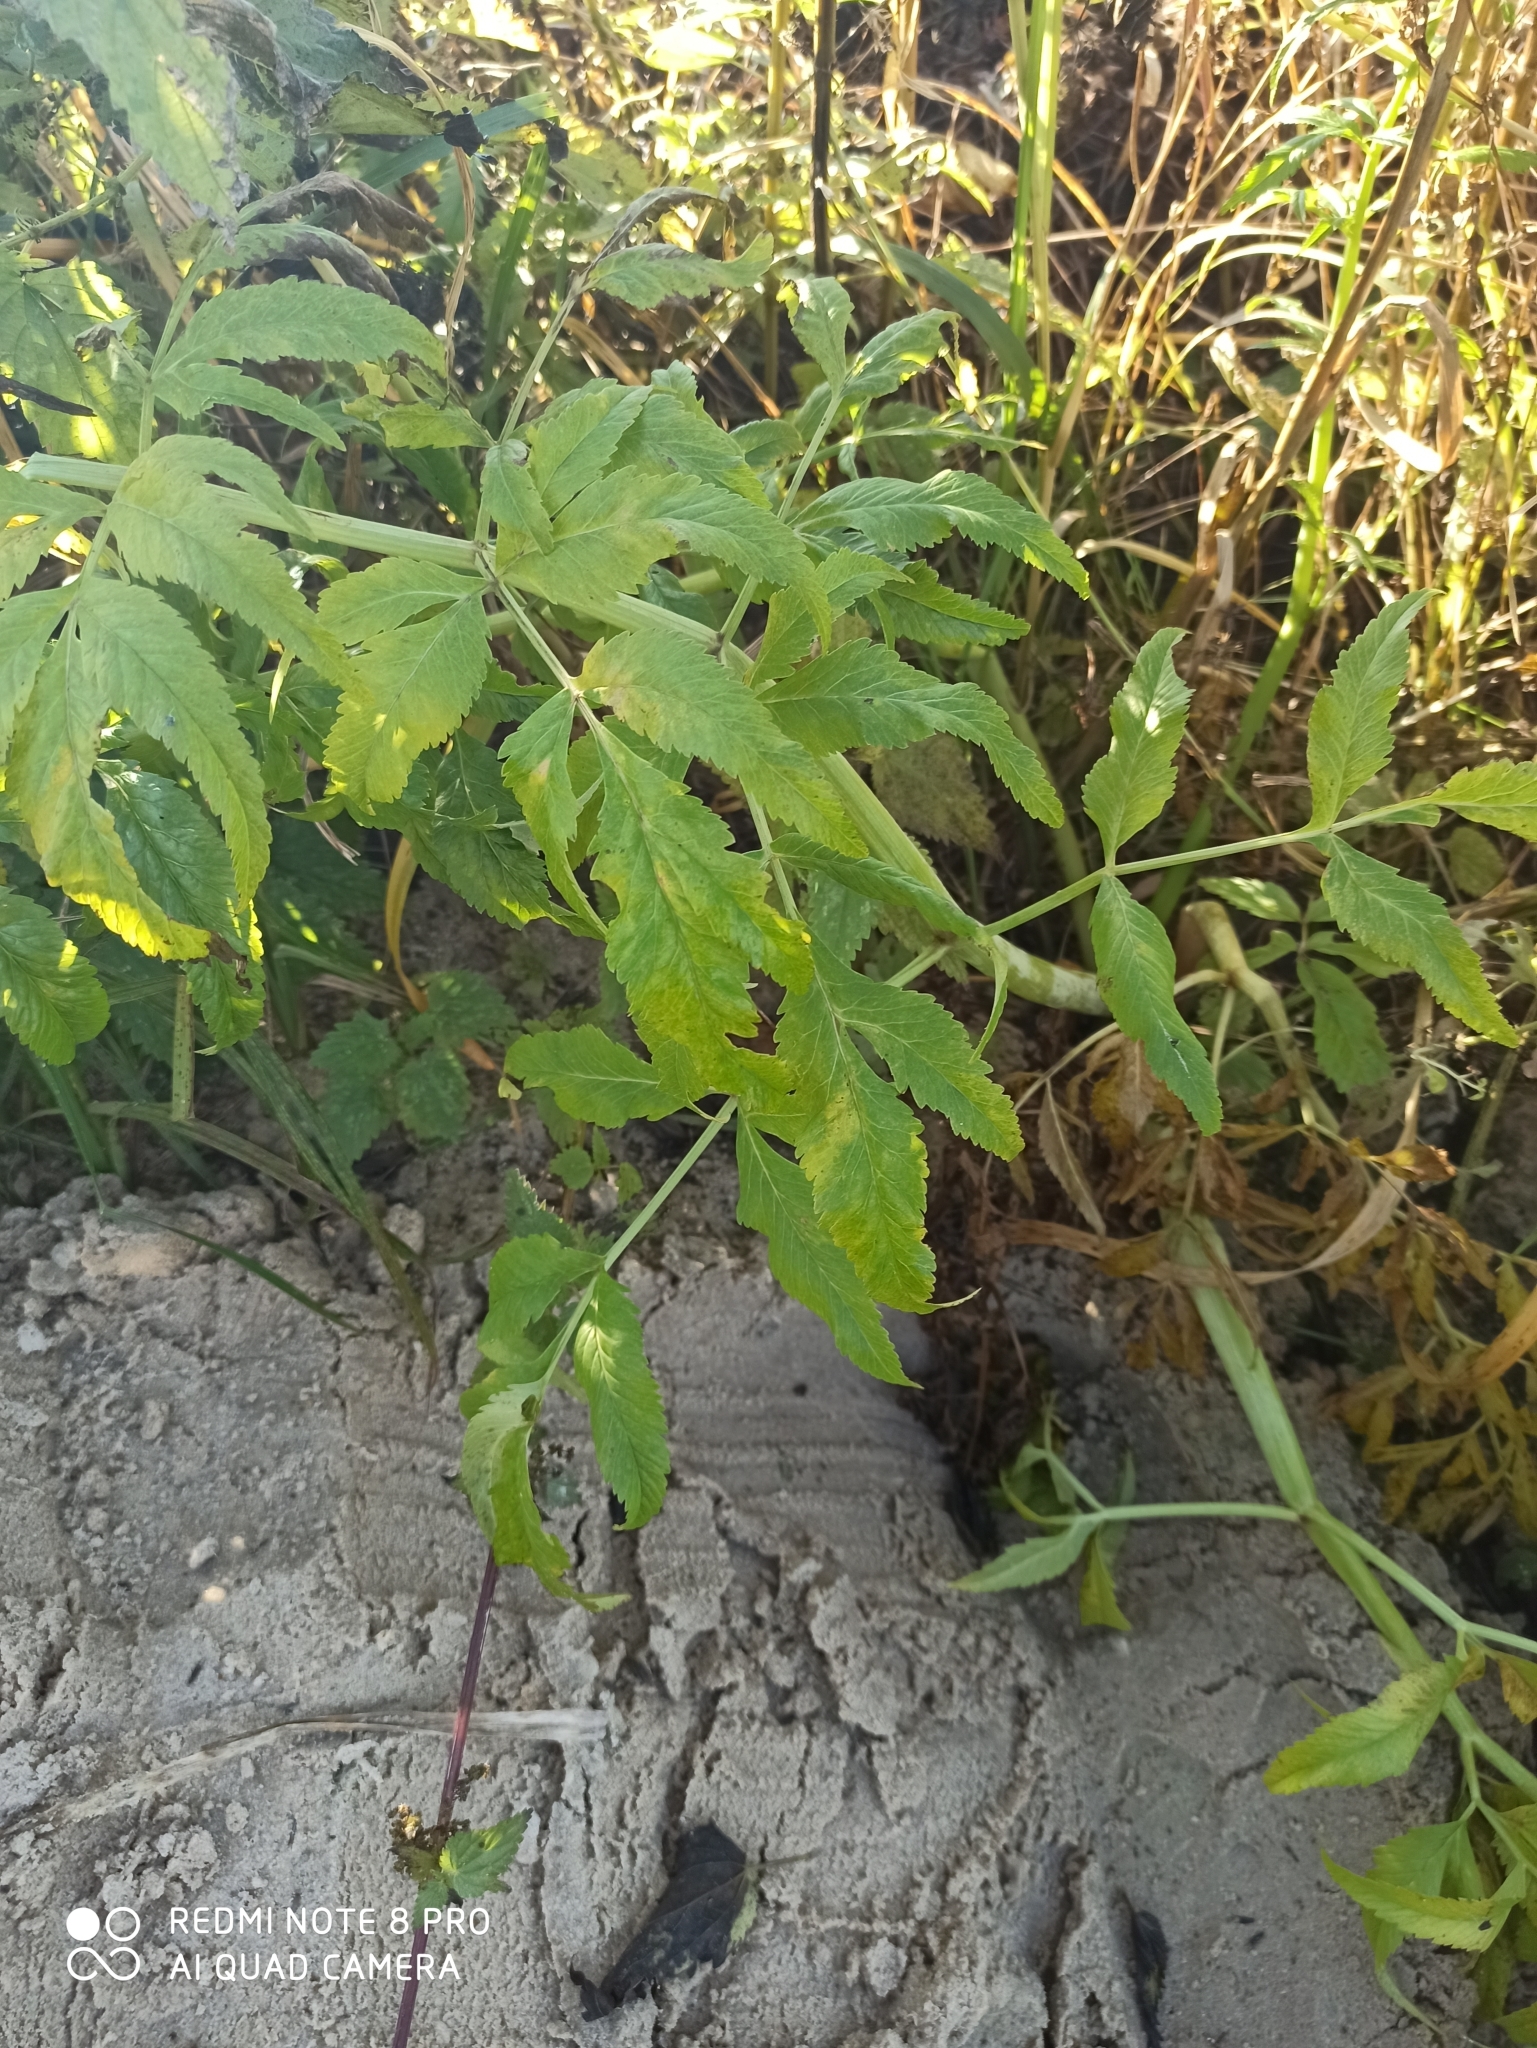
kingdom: Plantae
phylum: Tracheophyta
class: Magnoliopsida
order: Apiales
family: Apiaceae
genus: Cicuta
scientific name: Cicuta virosa
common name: Cowbane
